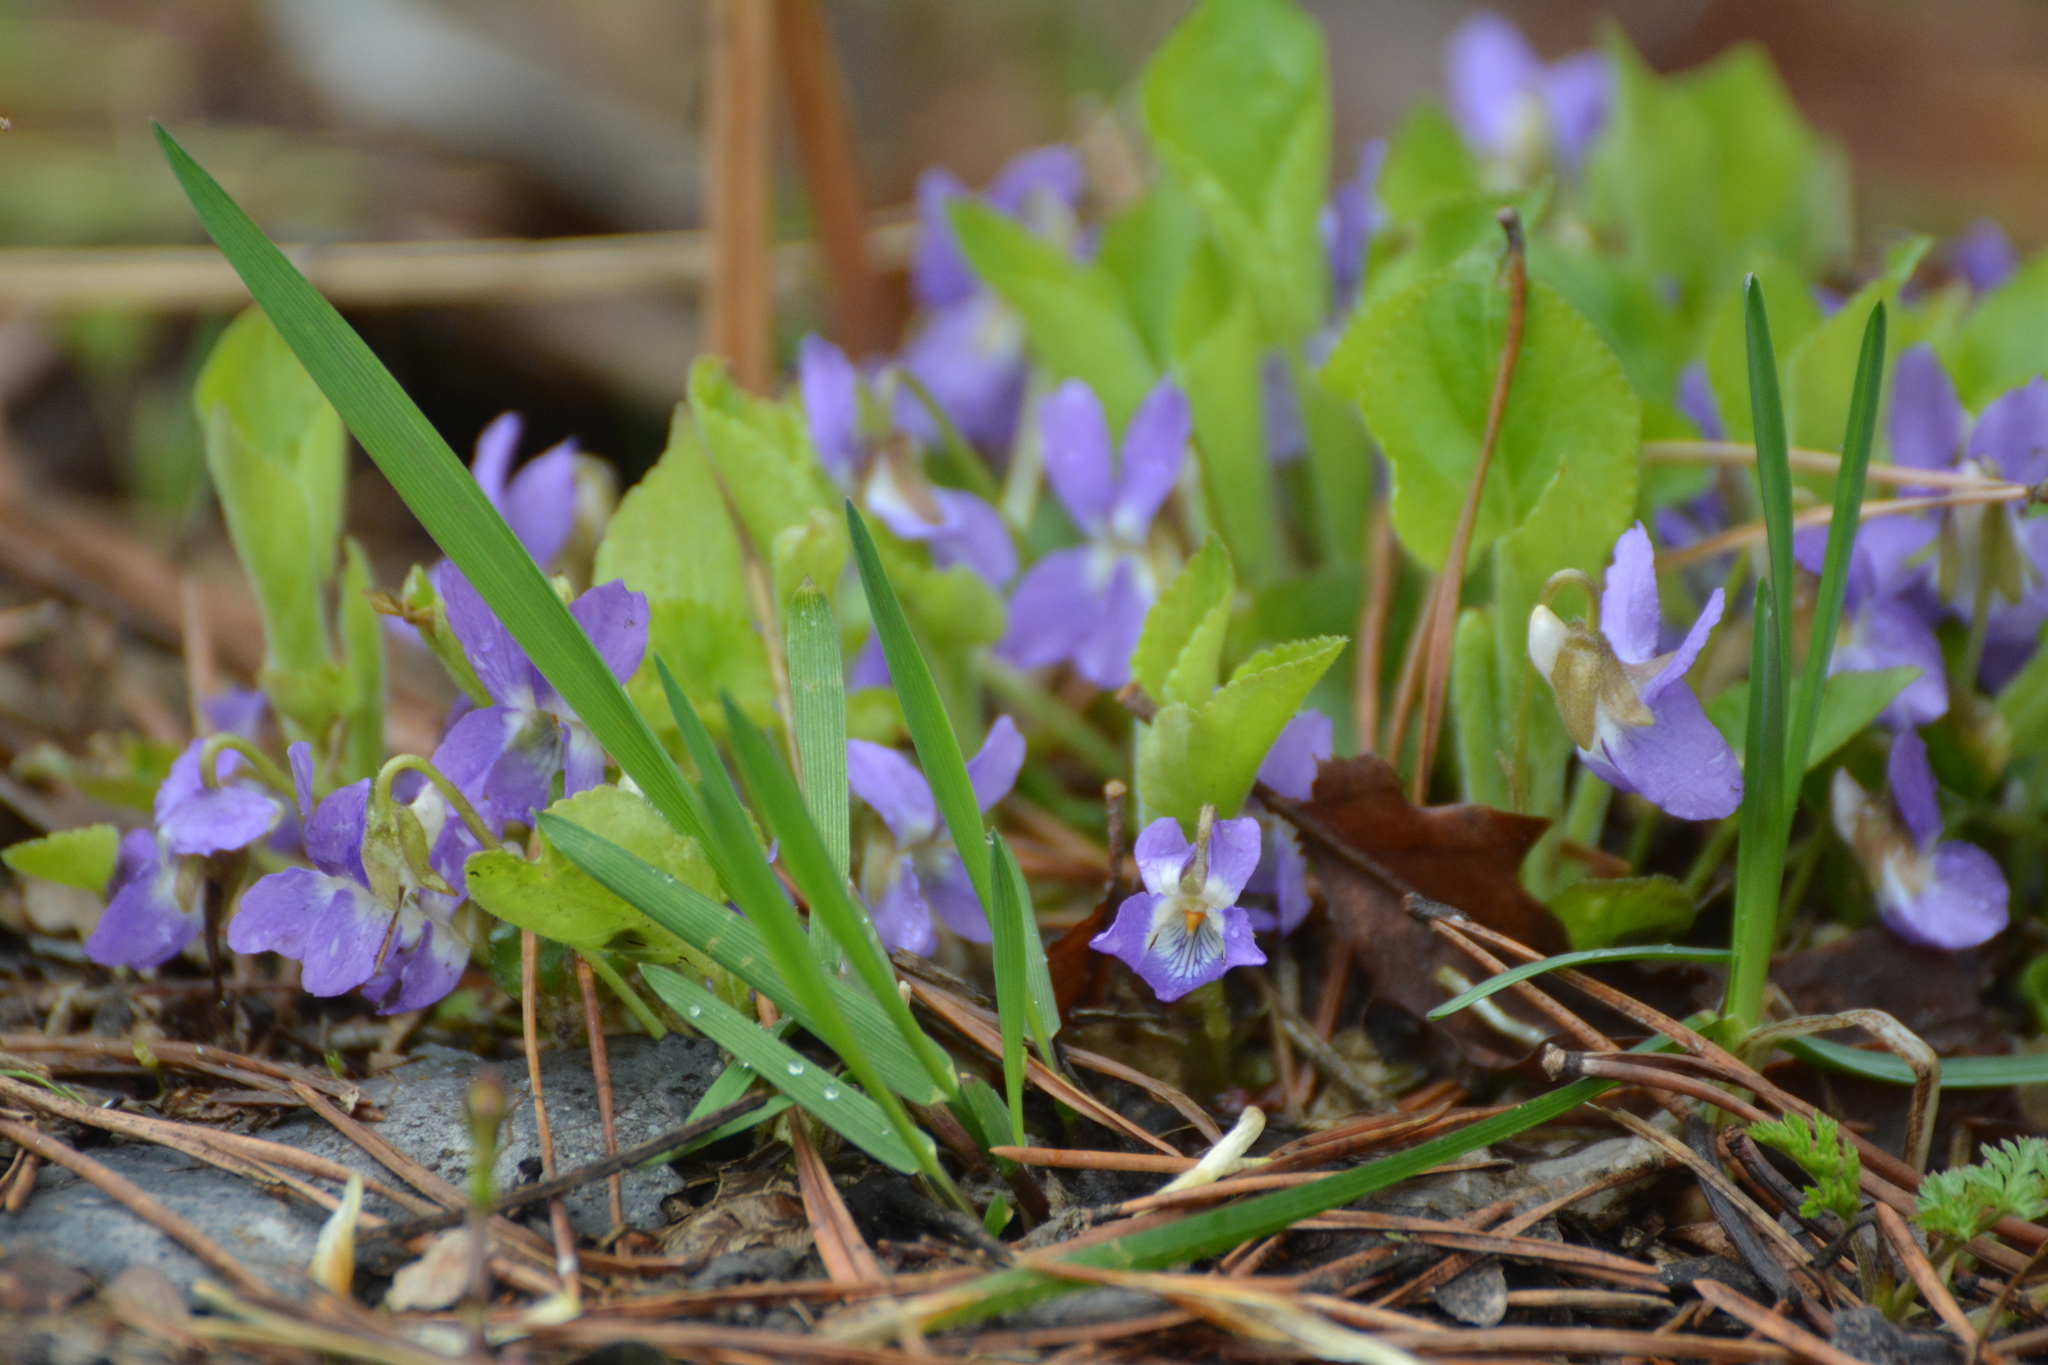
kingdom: Plantae
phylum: Tracheophyta
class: Magnoliopsida
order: Malpighiales
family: Violaceae
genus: Viola
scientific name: Viola collina
